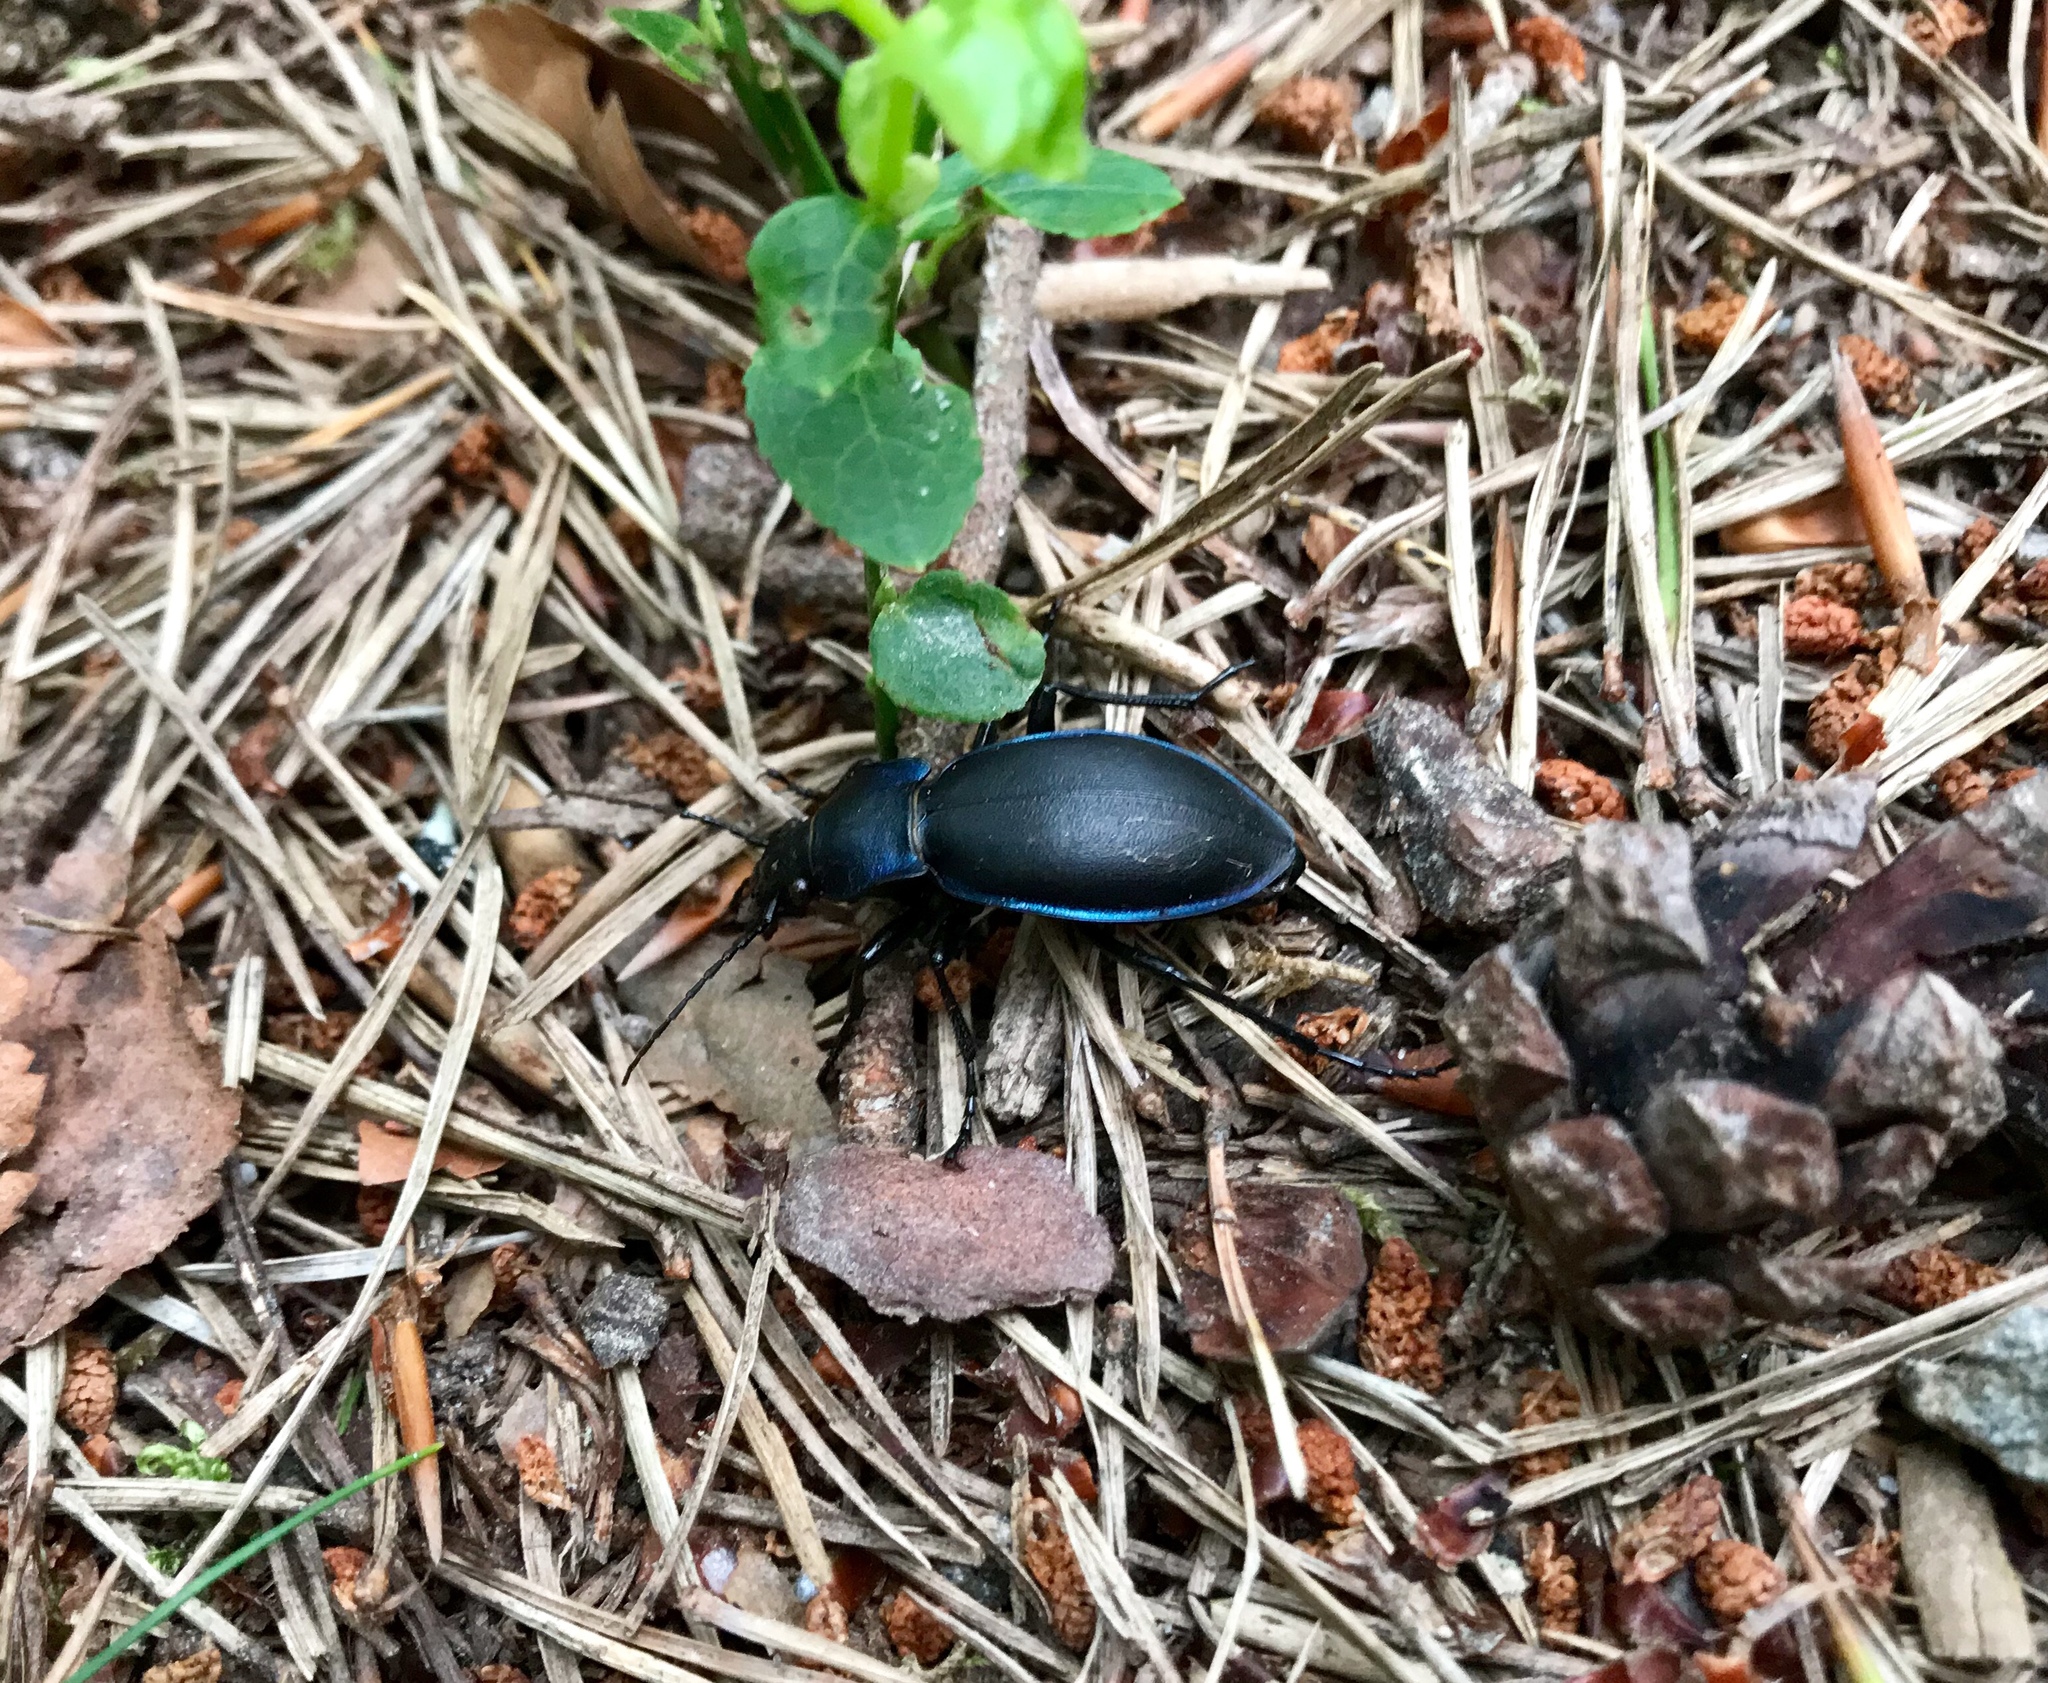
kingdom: Animalia
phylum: Arthropoda
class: Insecta
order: Coleoptera
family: Carabidae
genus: Carabus
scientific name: Carabus violaceus
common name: Violet ground beetle
